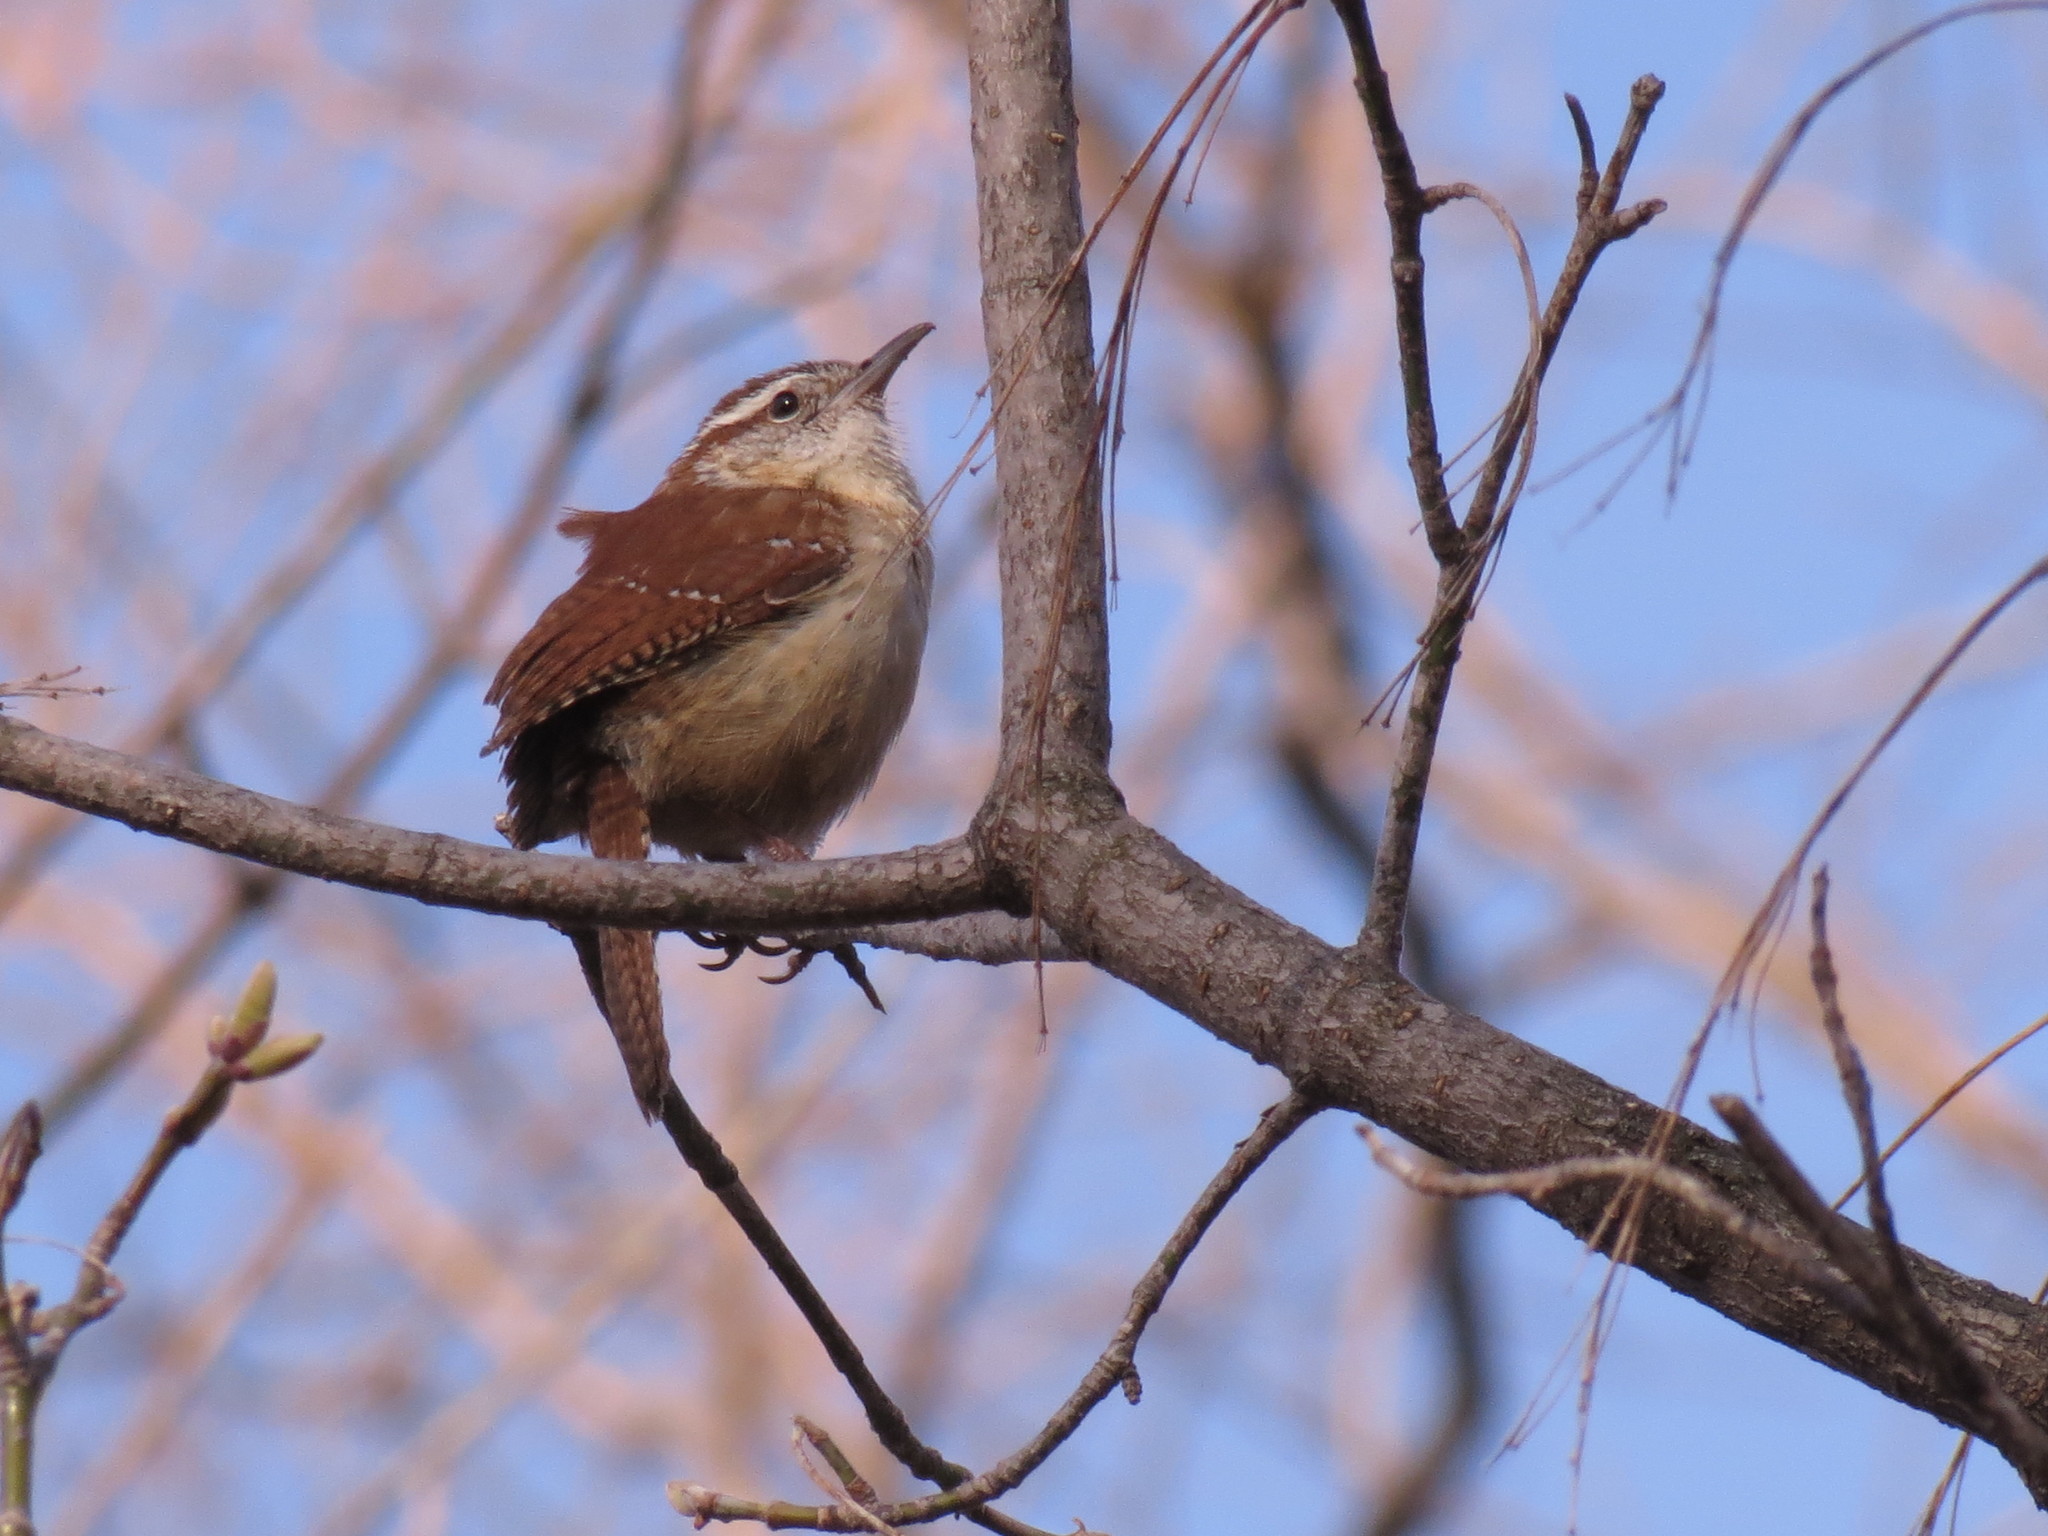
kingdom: Animalia
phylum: Chordata
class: Aves
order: Passeriformes
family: Troglodytidae
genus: Thryothorus
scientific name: Thryothorus ludovicianus
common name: Carolina wren
